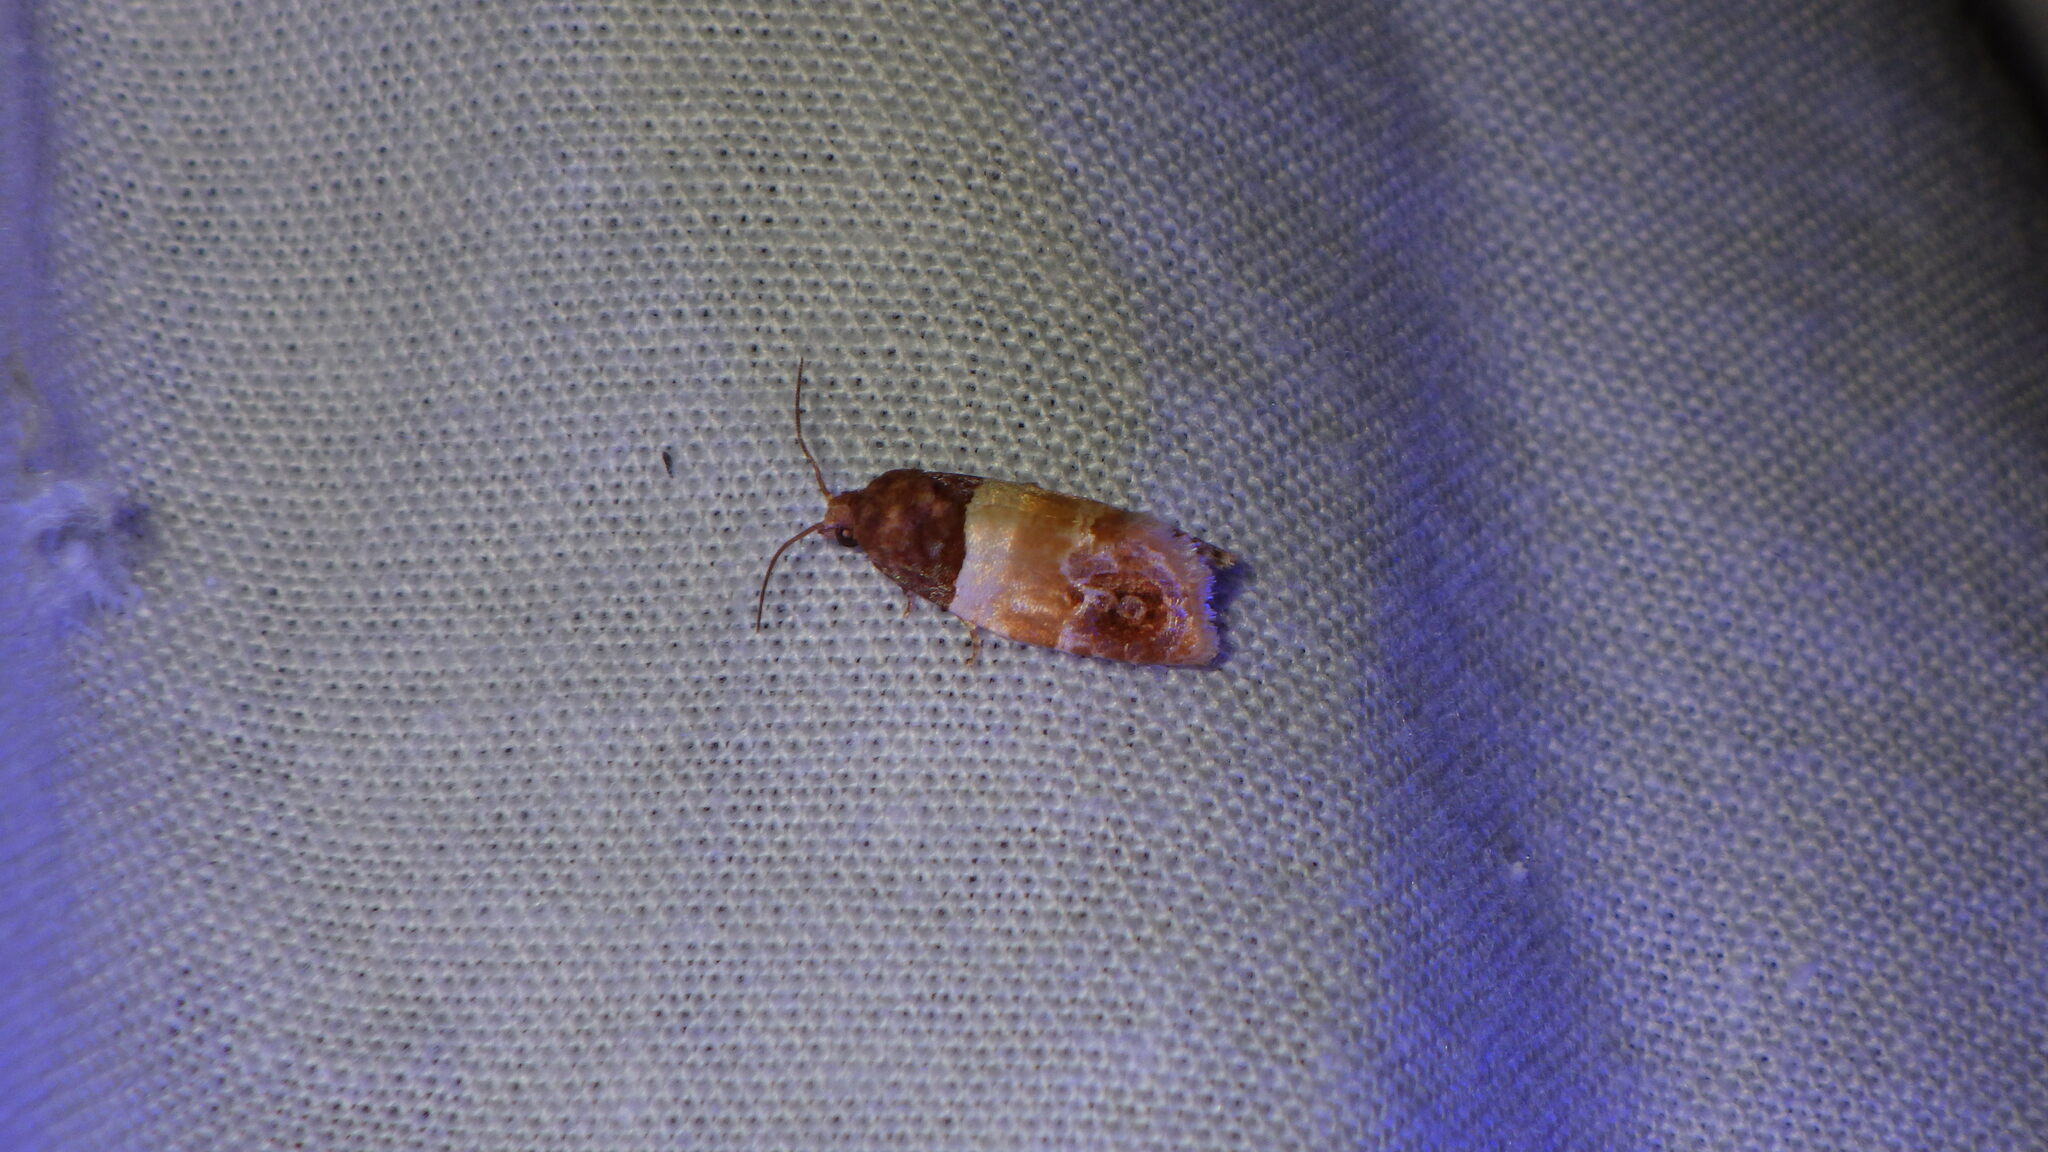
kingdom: Animalia
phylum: Arthropoda
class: Insecta
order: Lepidoptera
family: Tortricidae
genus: Epinotia
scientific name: Epinotia festivana
